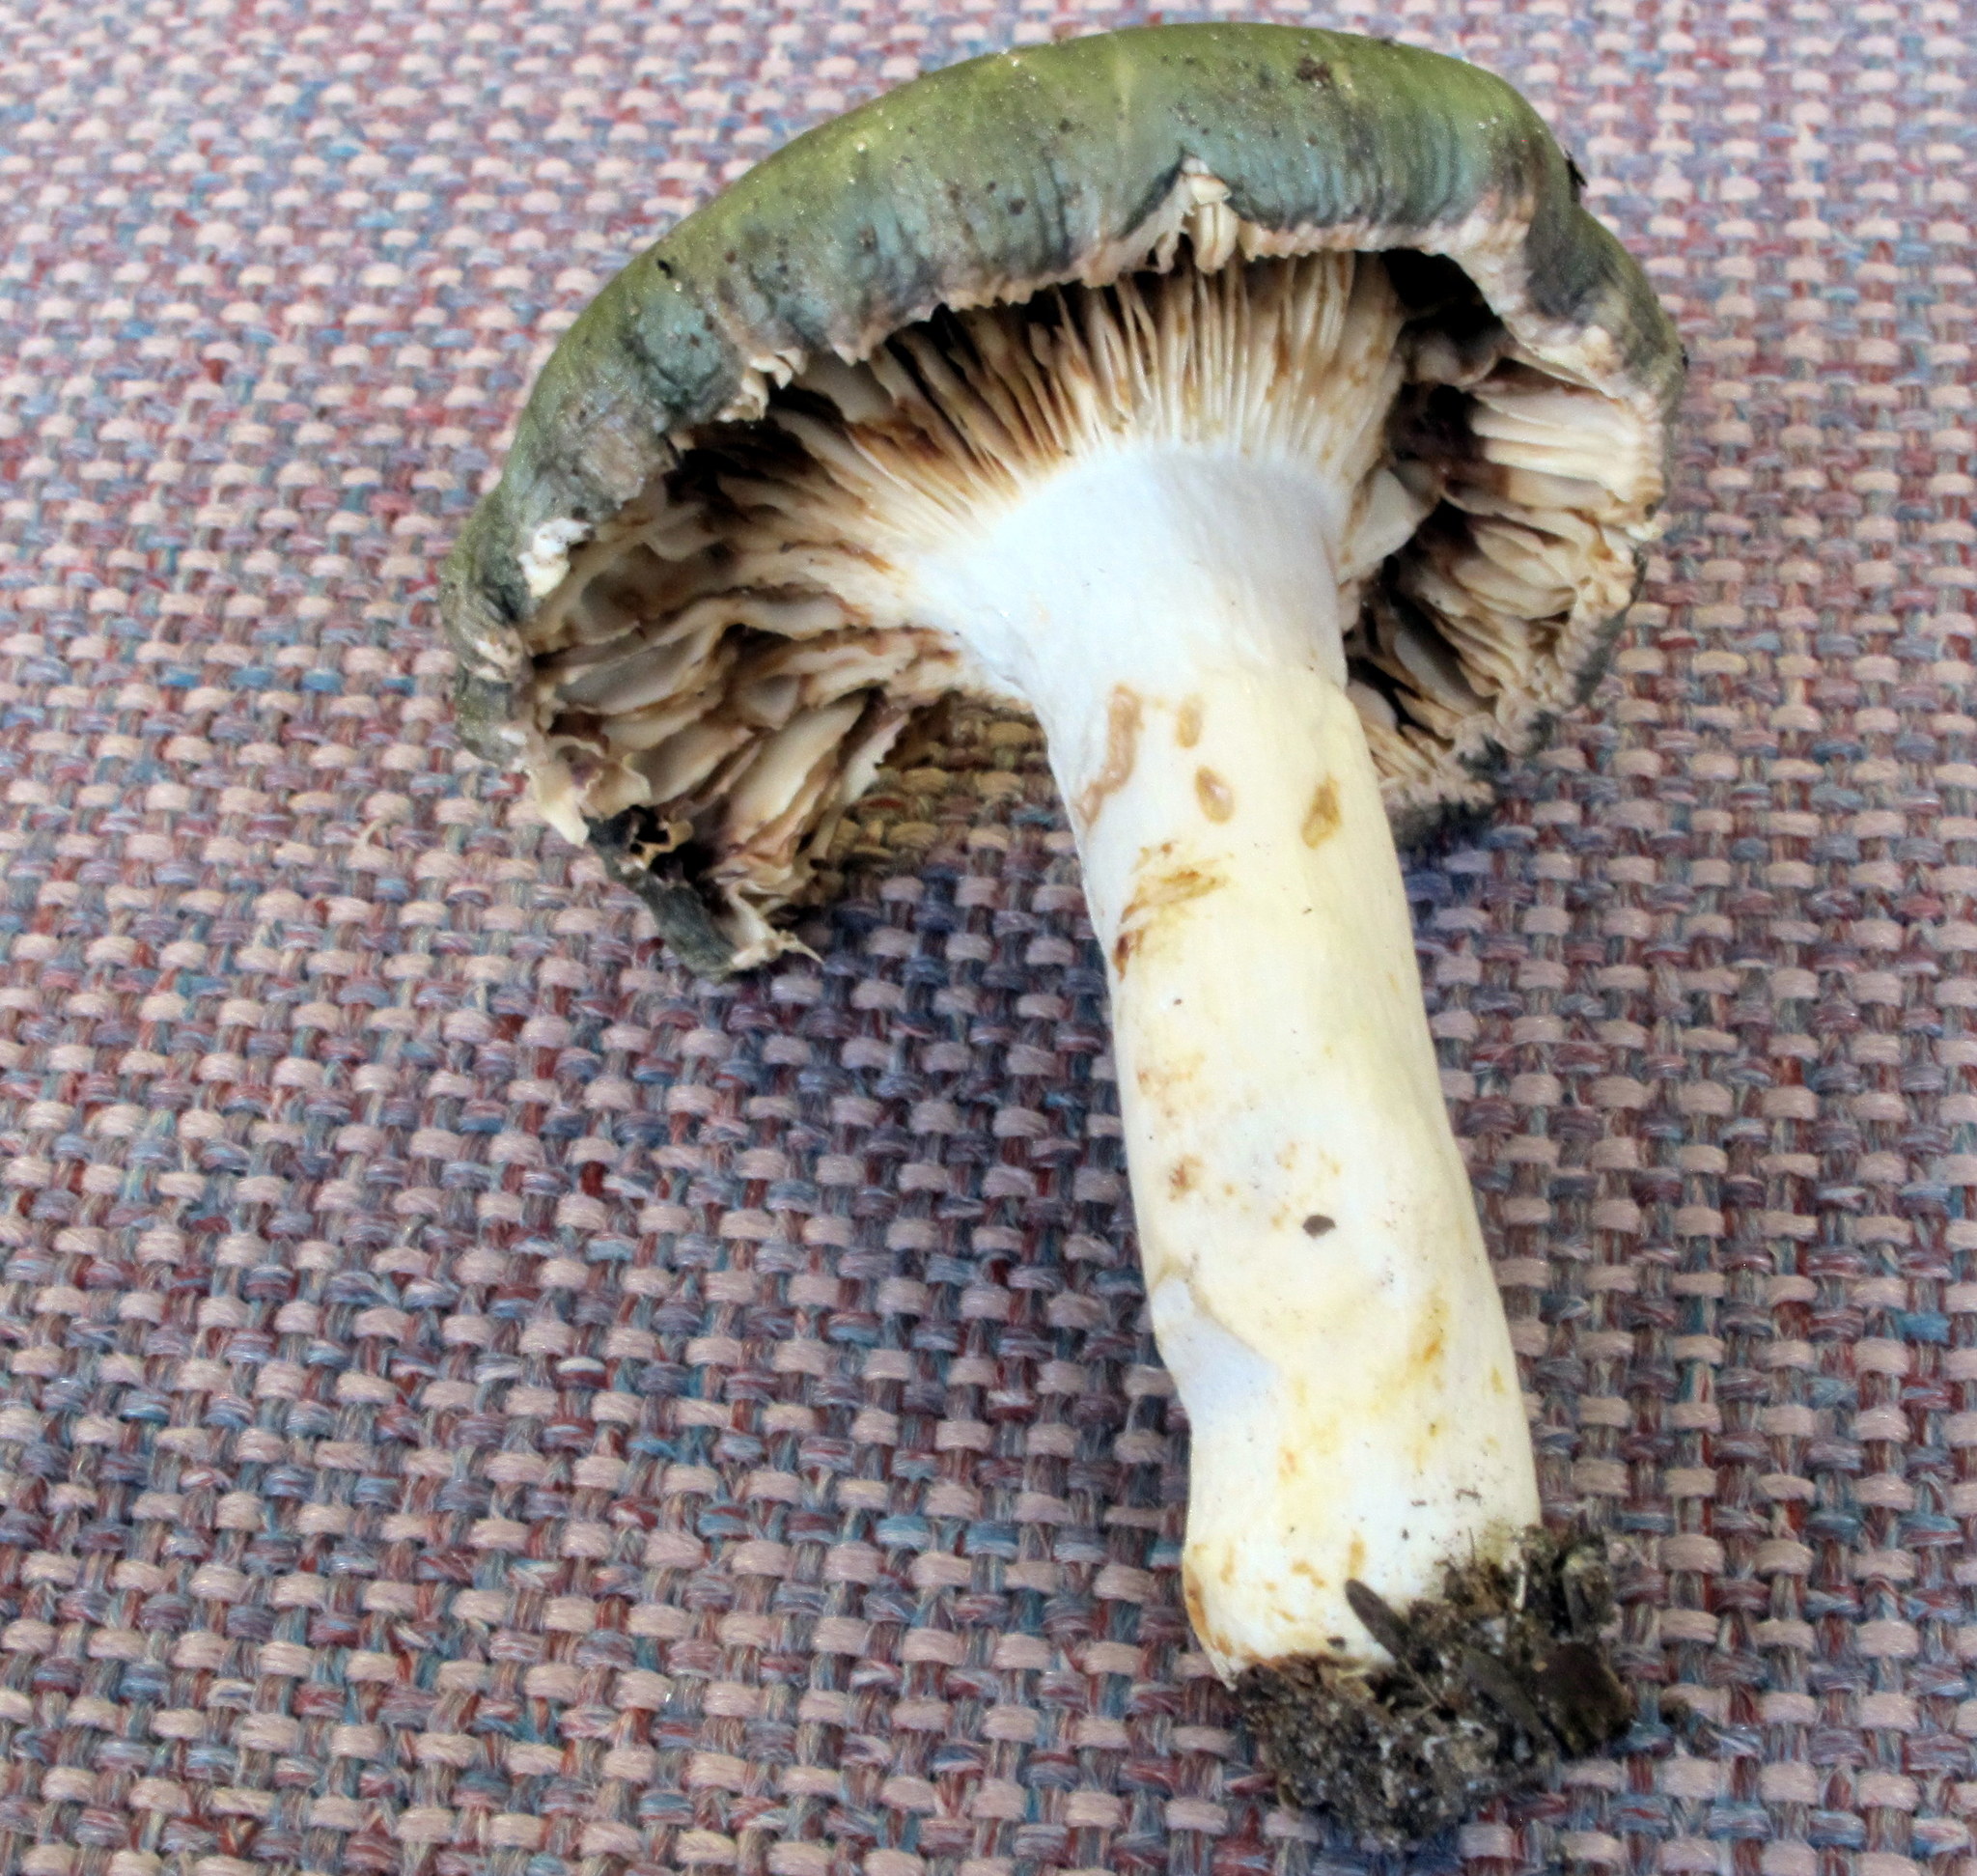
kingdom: Fungi
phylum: Basidiomycota
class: Agaricomycetes
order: Russulales
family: Russulaceae
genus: Russula
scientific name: Russula viridella
